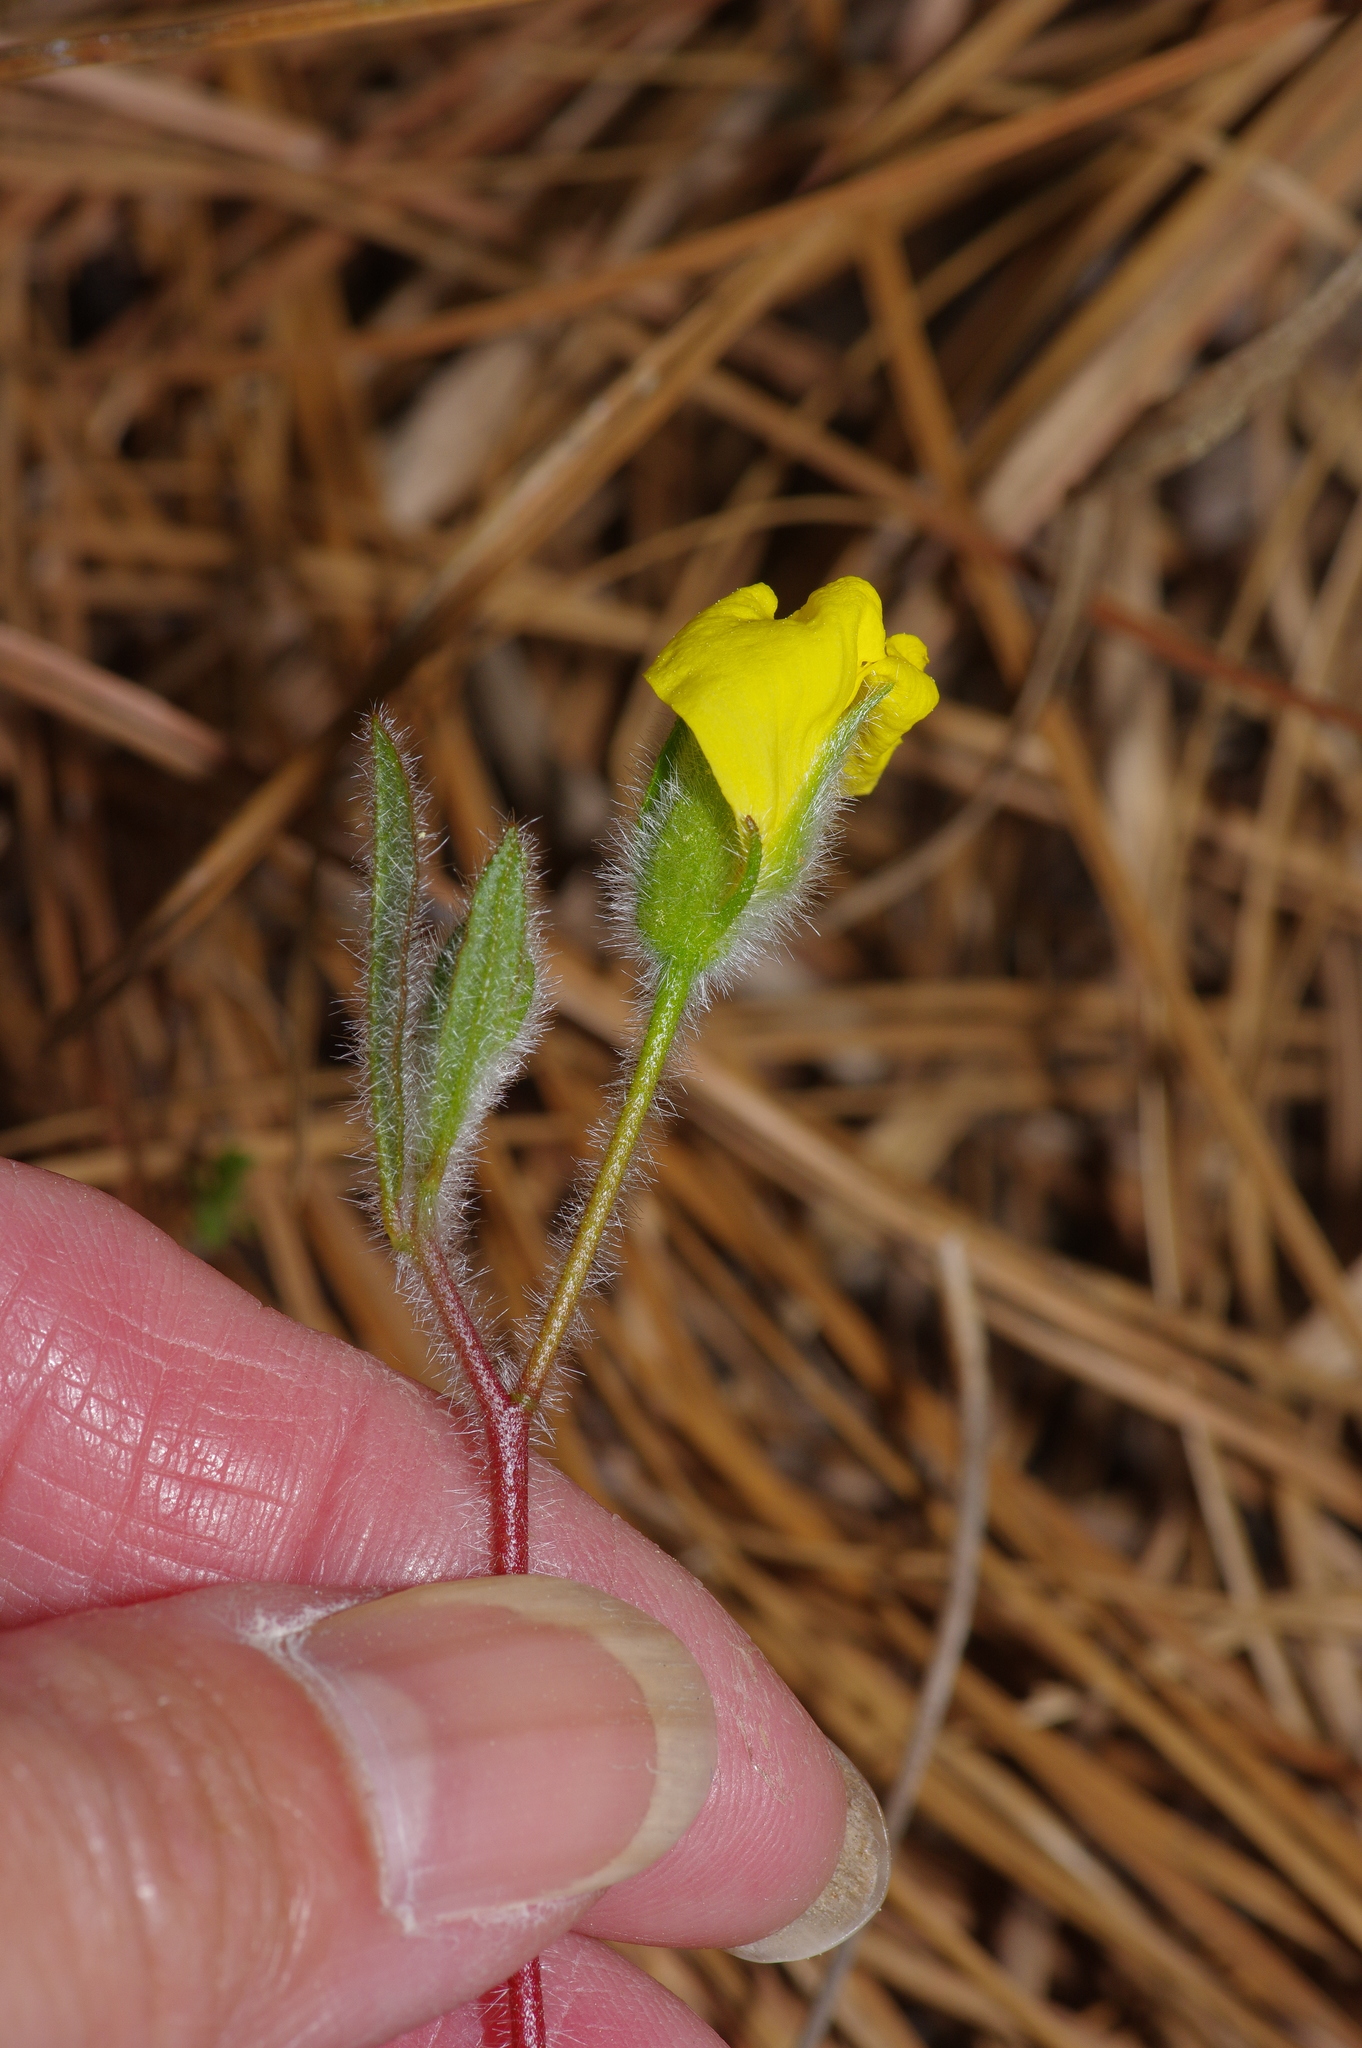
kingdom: Plantae
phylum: Tracheophyta
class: Magnoliopsida
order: Malvales
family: Cistaceae
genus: Crocanthemum
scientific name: Crocanthemum carolinianum
